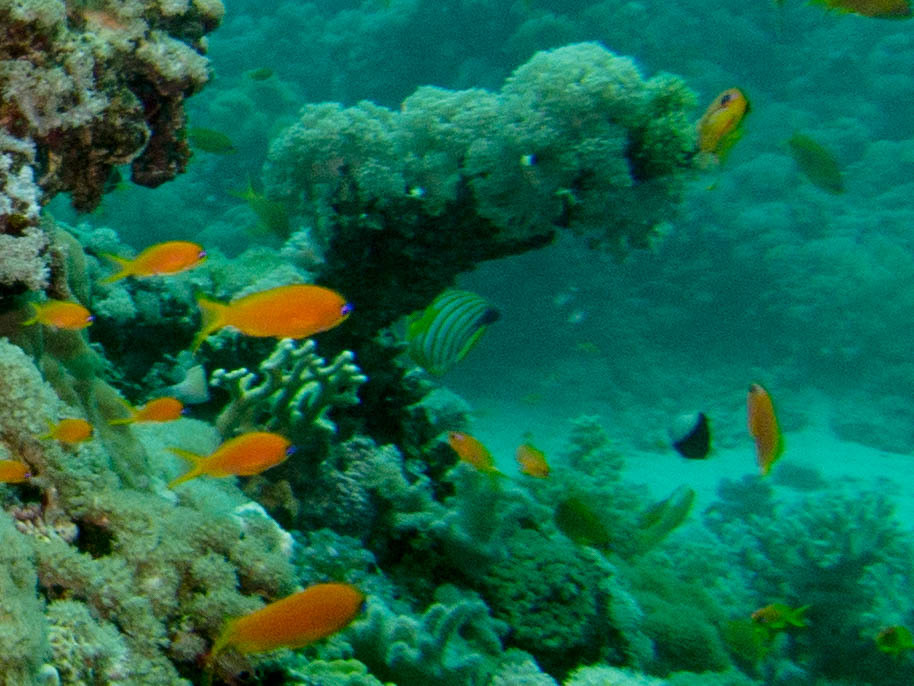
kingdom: Animalia
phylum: Chordata
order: Perciformes
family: Pomacanthidae
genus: Pygoplites
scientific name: Pygoplites diacanthus
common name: Regal angelfish
